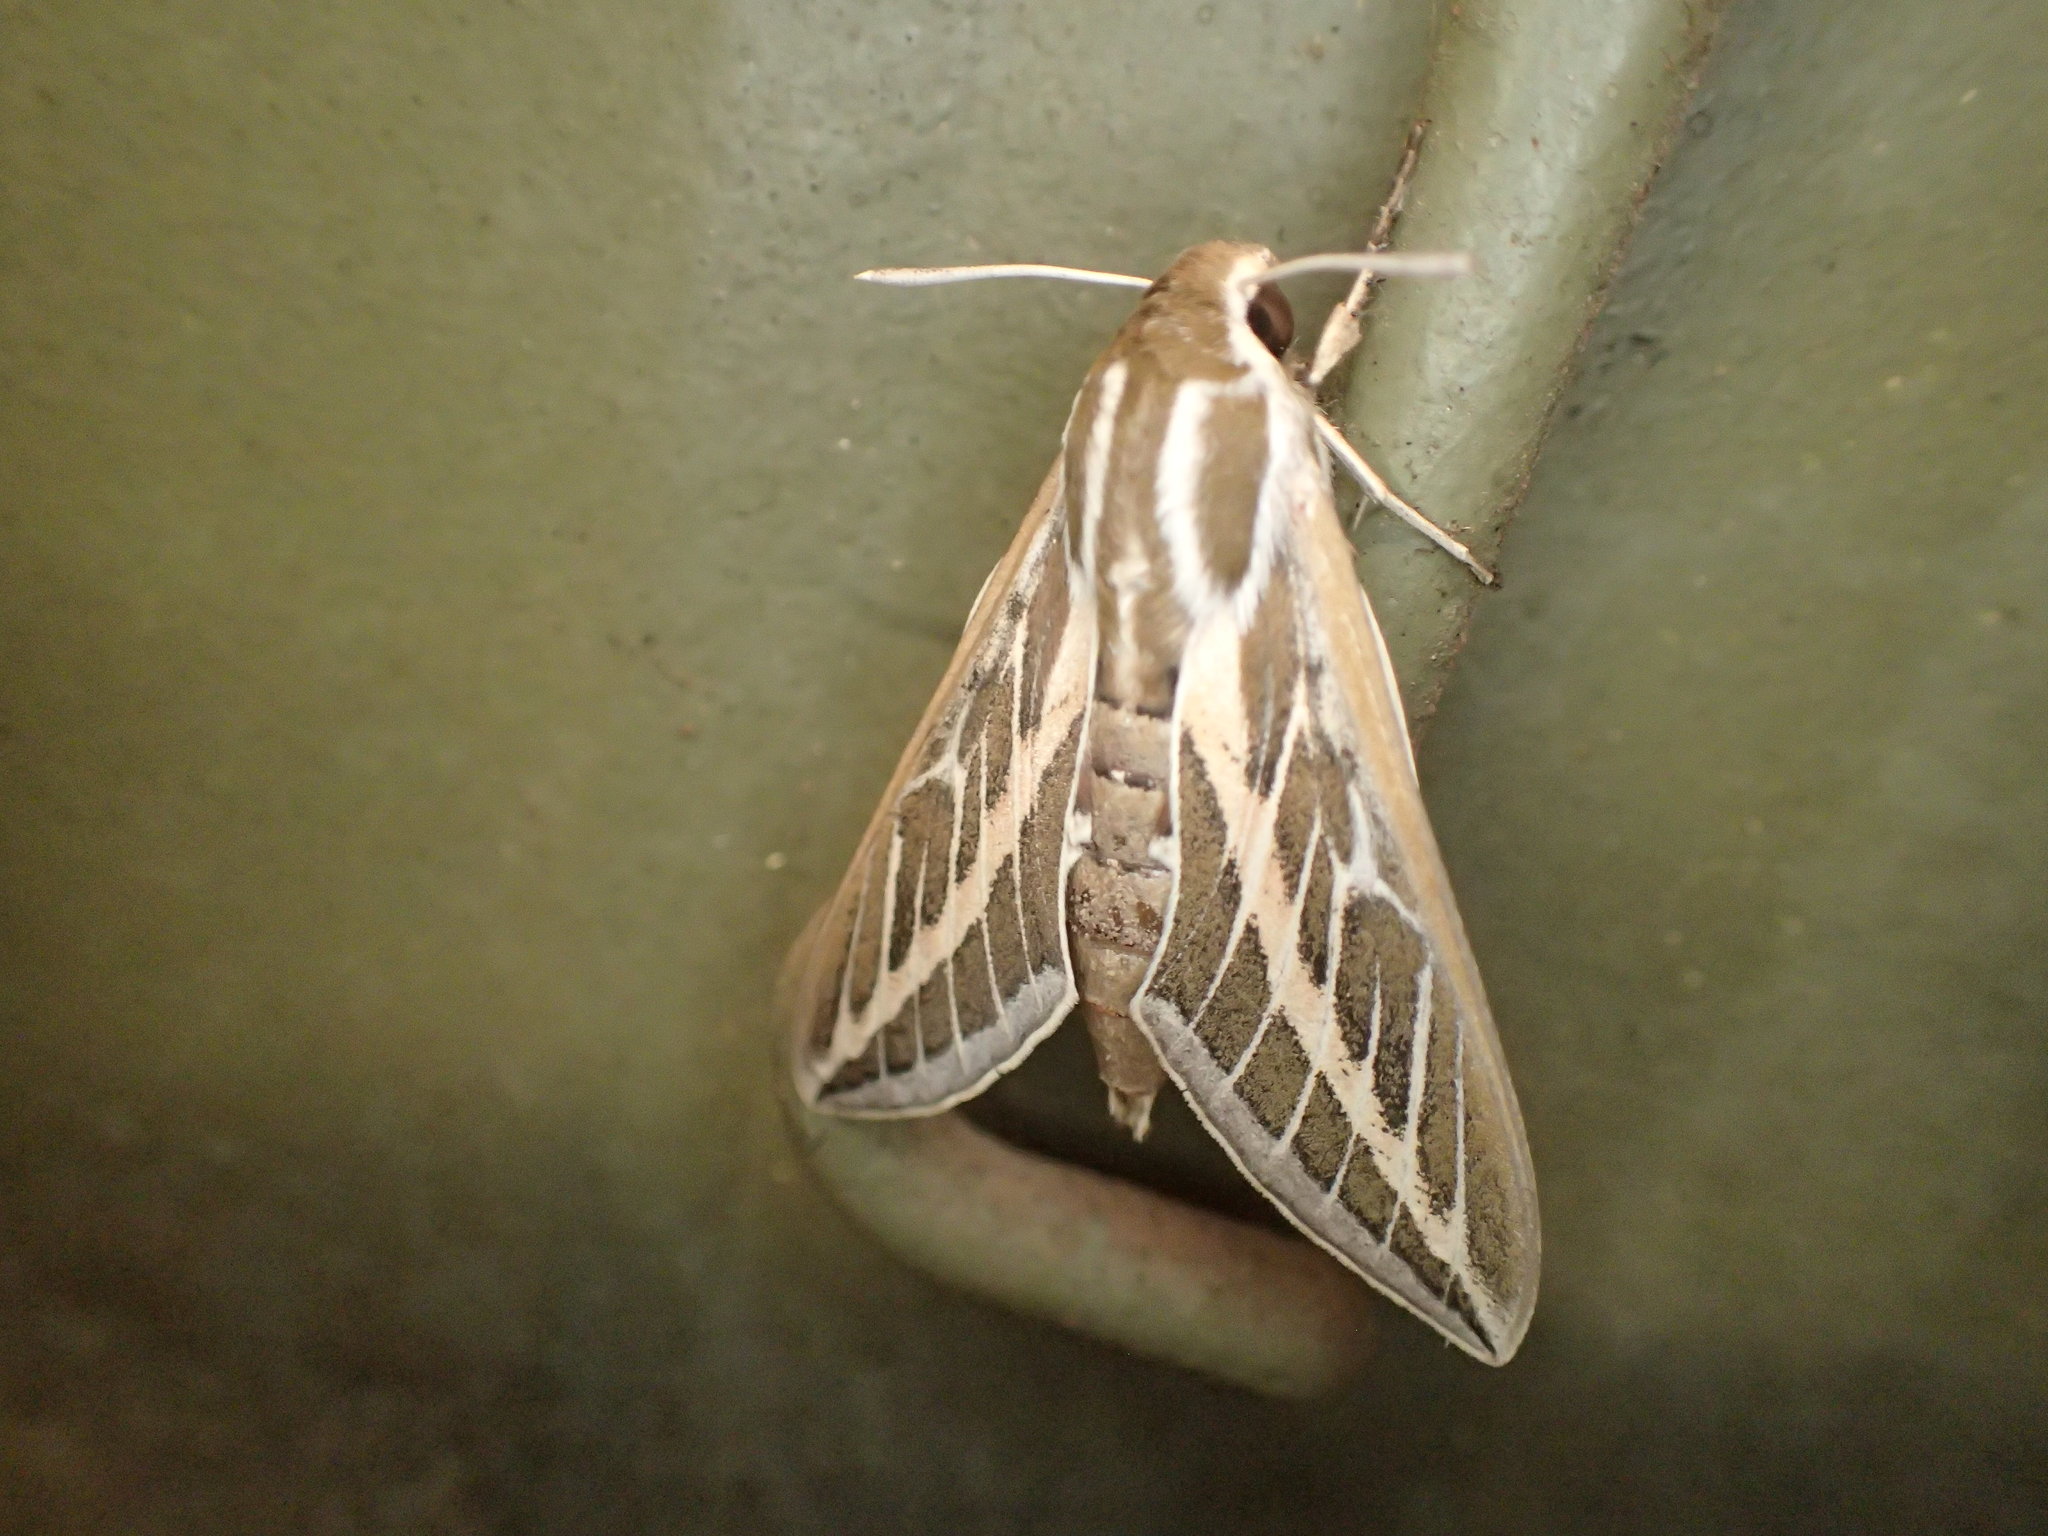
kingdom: Animalia
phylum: Arthropoda
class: Insecta
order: Lepidoptera
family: Sphingidae
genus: Hyles
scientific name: Hyles livornicoides
